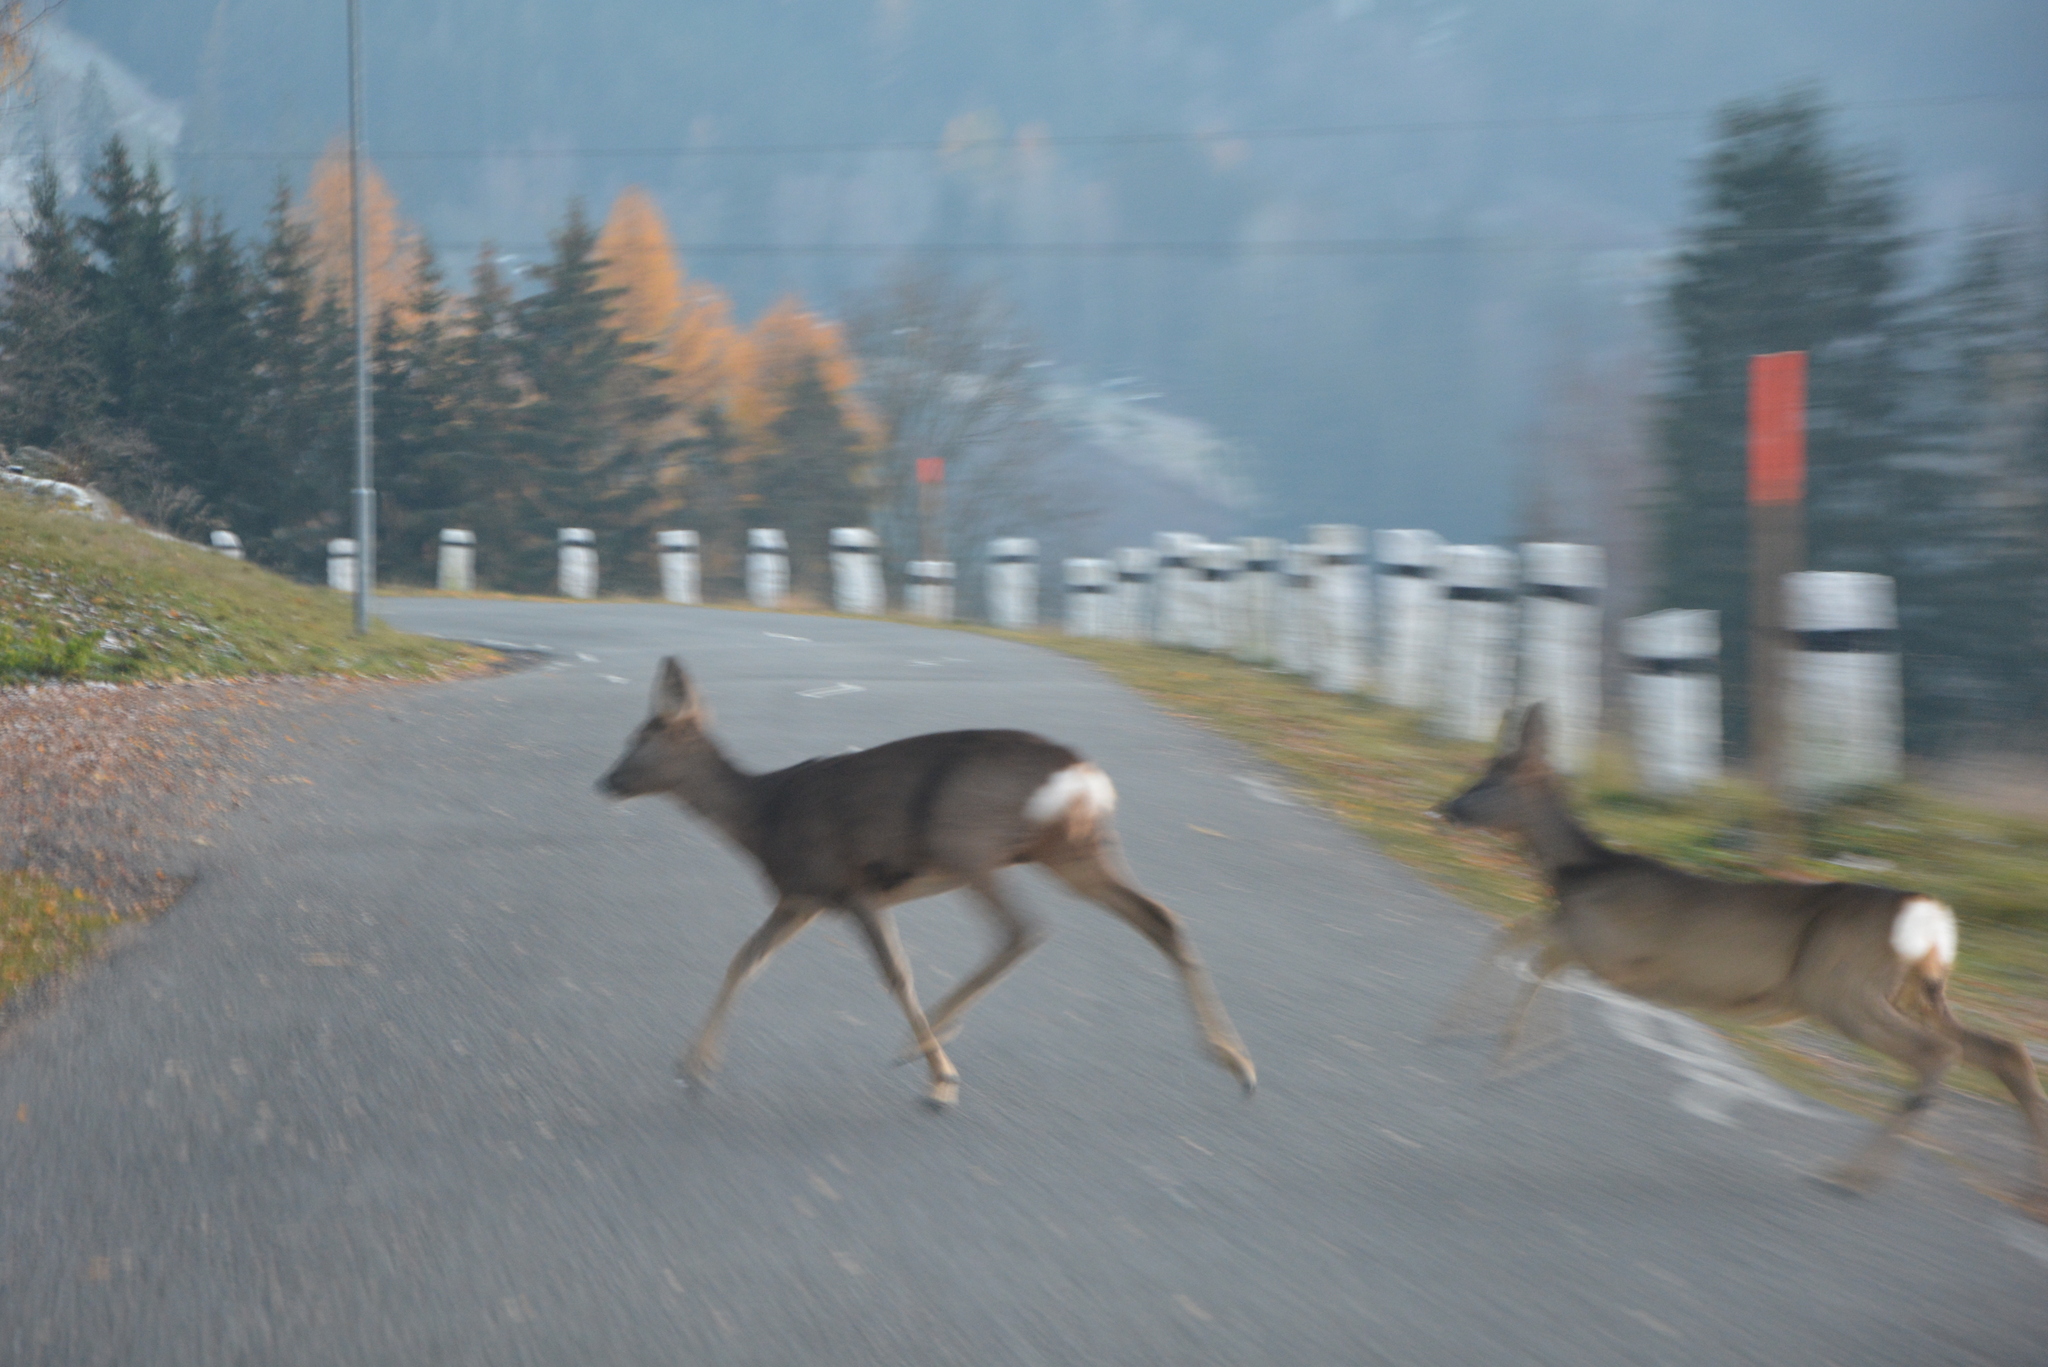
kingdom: Animalia
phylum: Chordata
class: Mammalia
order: Artiodactyla
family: Cervidae
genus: Capreolus
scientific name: Capreolus capreolus
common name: Western roe deer
